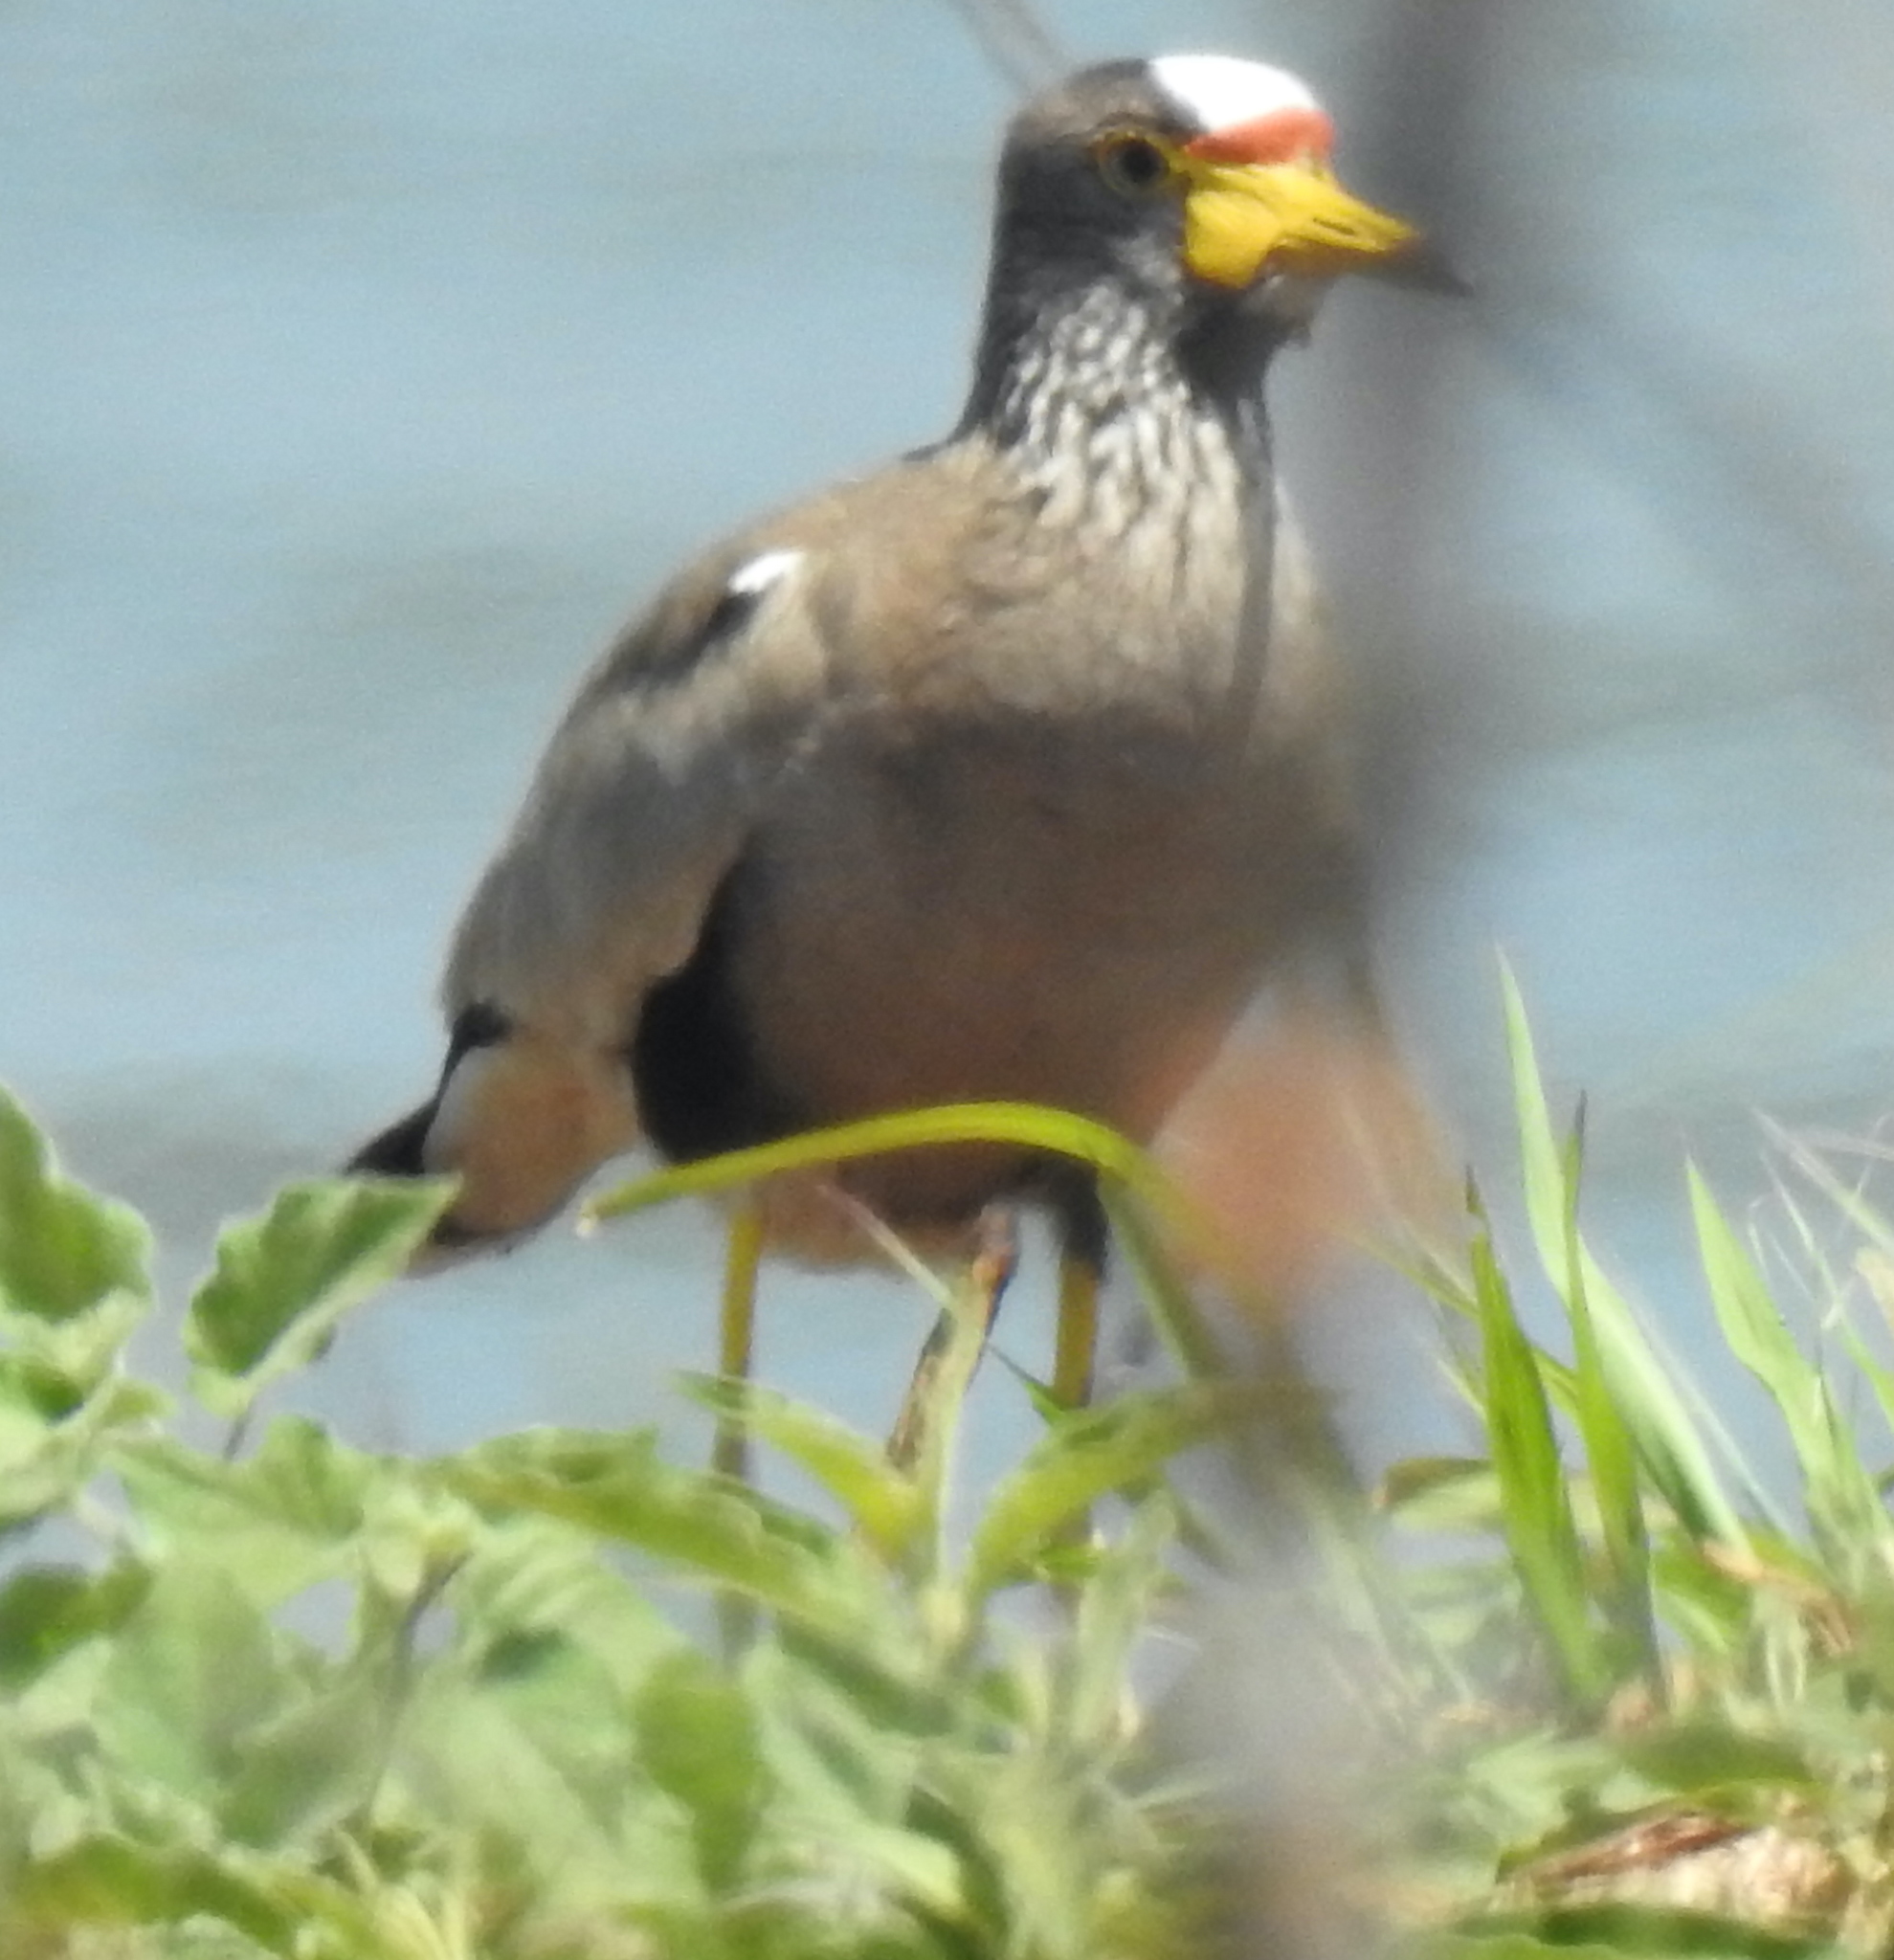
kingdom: Animalia
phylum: Chordata
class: Aves
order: Charadriiformes
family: Charadriidae
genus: Vanellus
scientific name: Vanellus senegallus
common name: African wattled lapwing
